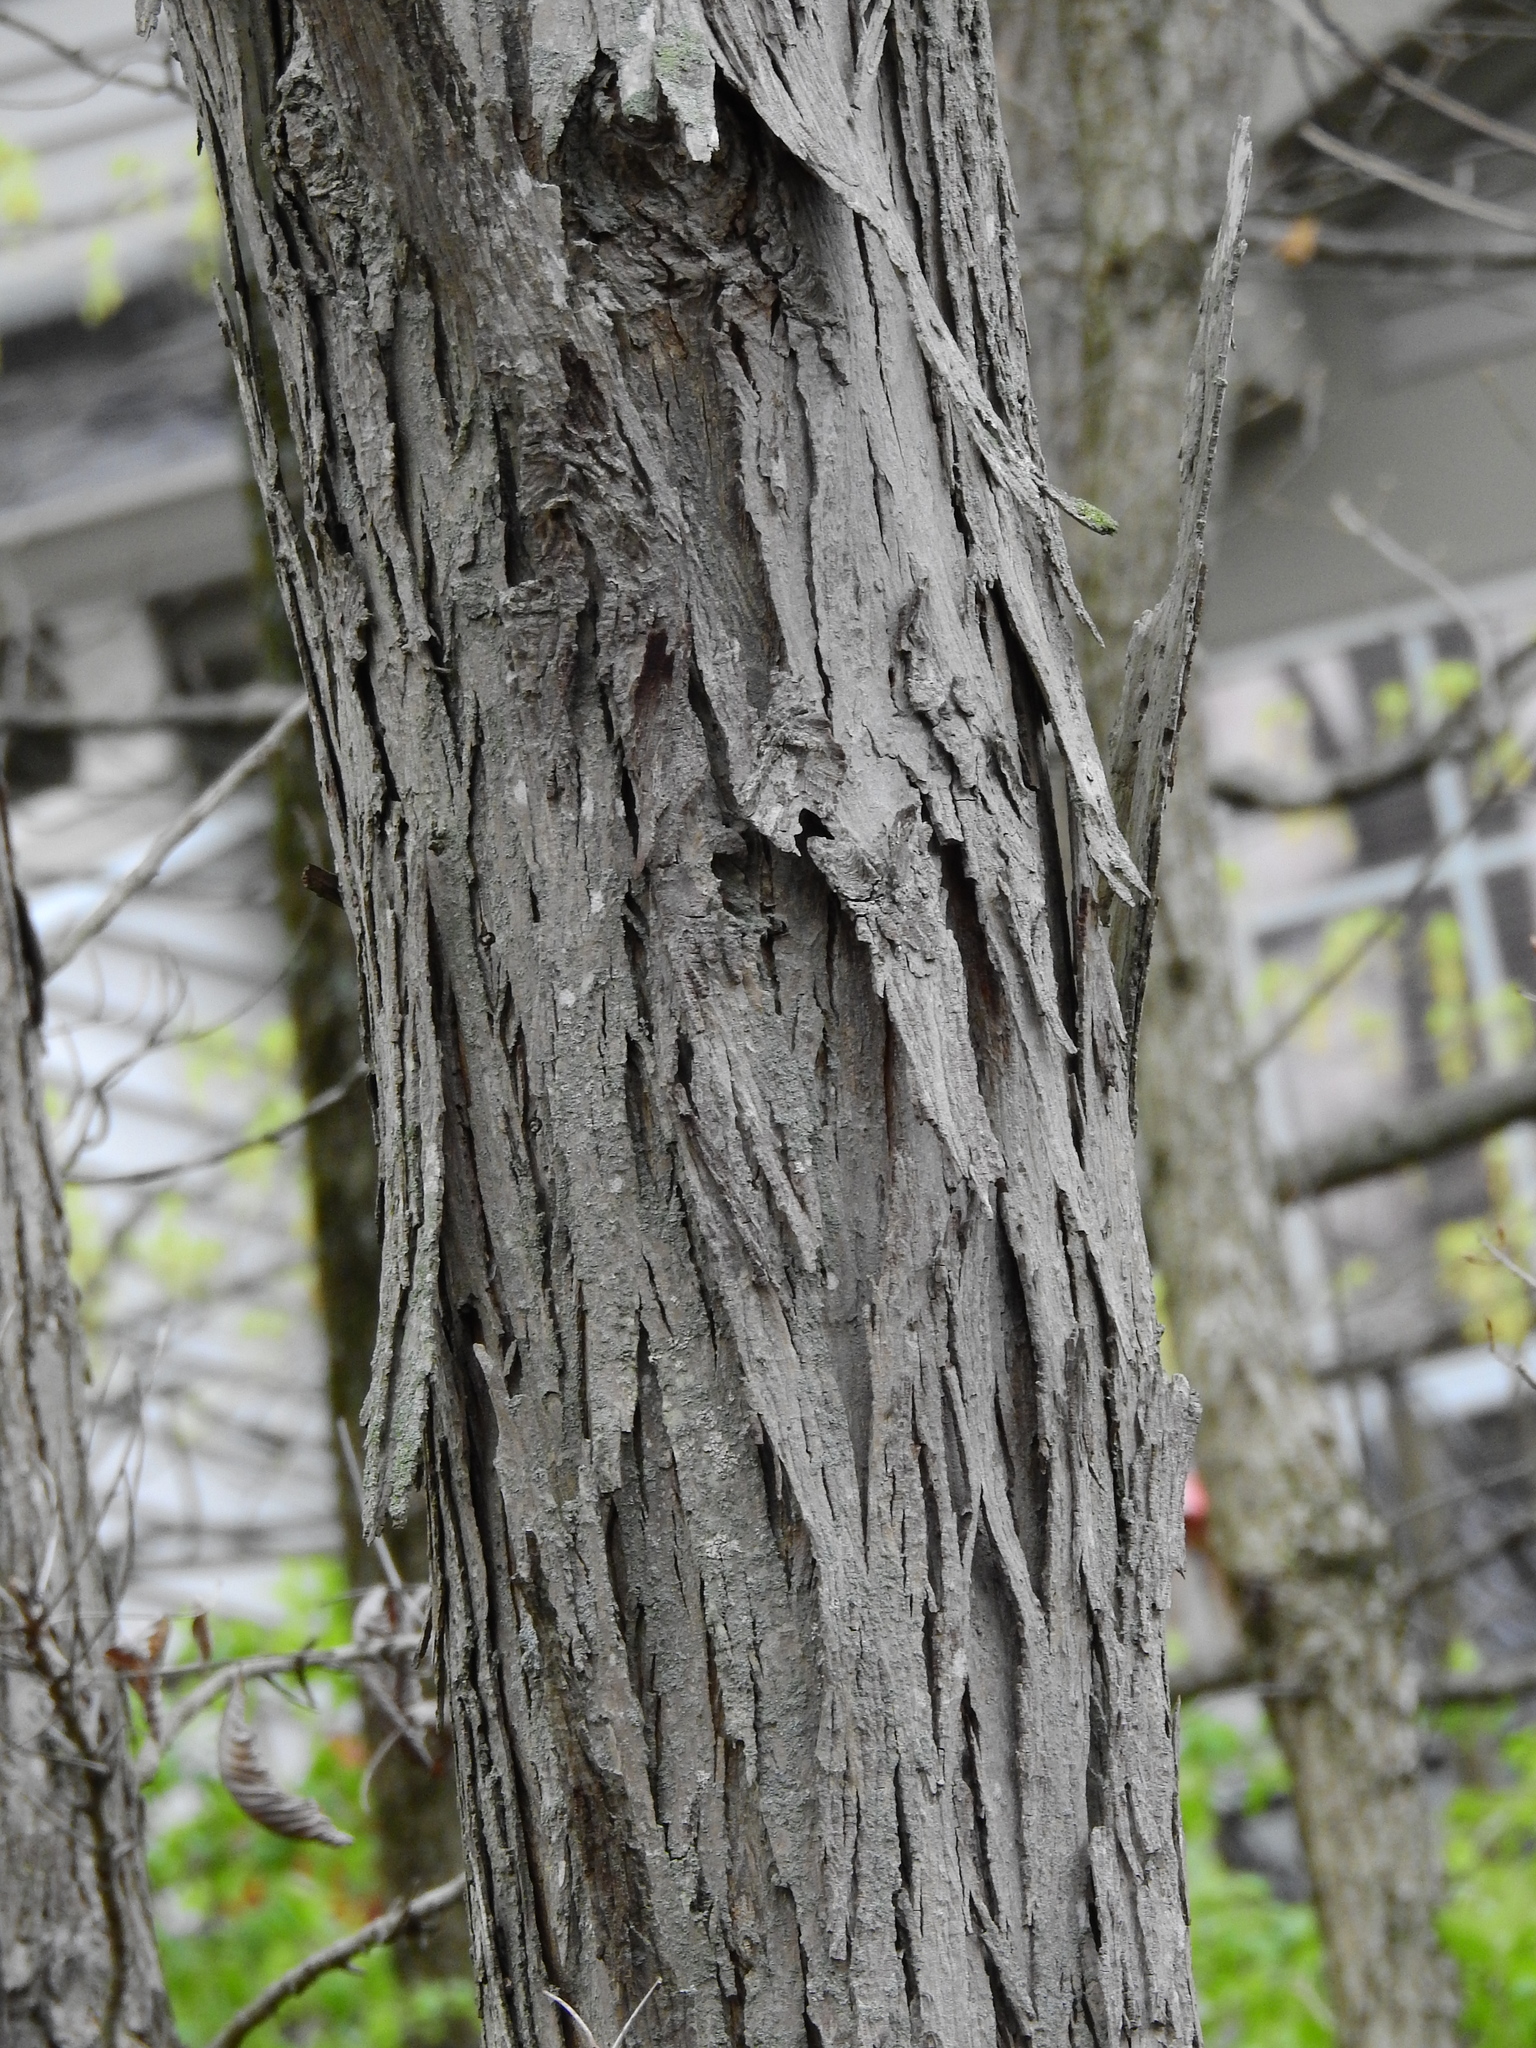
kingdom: Plantae
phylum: Tracheophyta
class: Magnoliopsida
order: Fagales
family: Juglandaceae
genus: Carya
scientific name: Carya ovata
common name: Shagbark hickory
